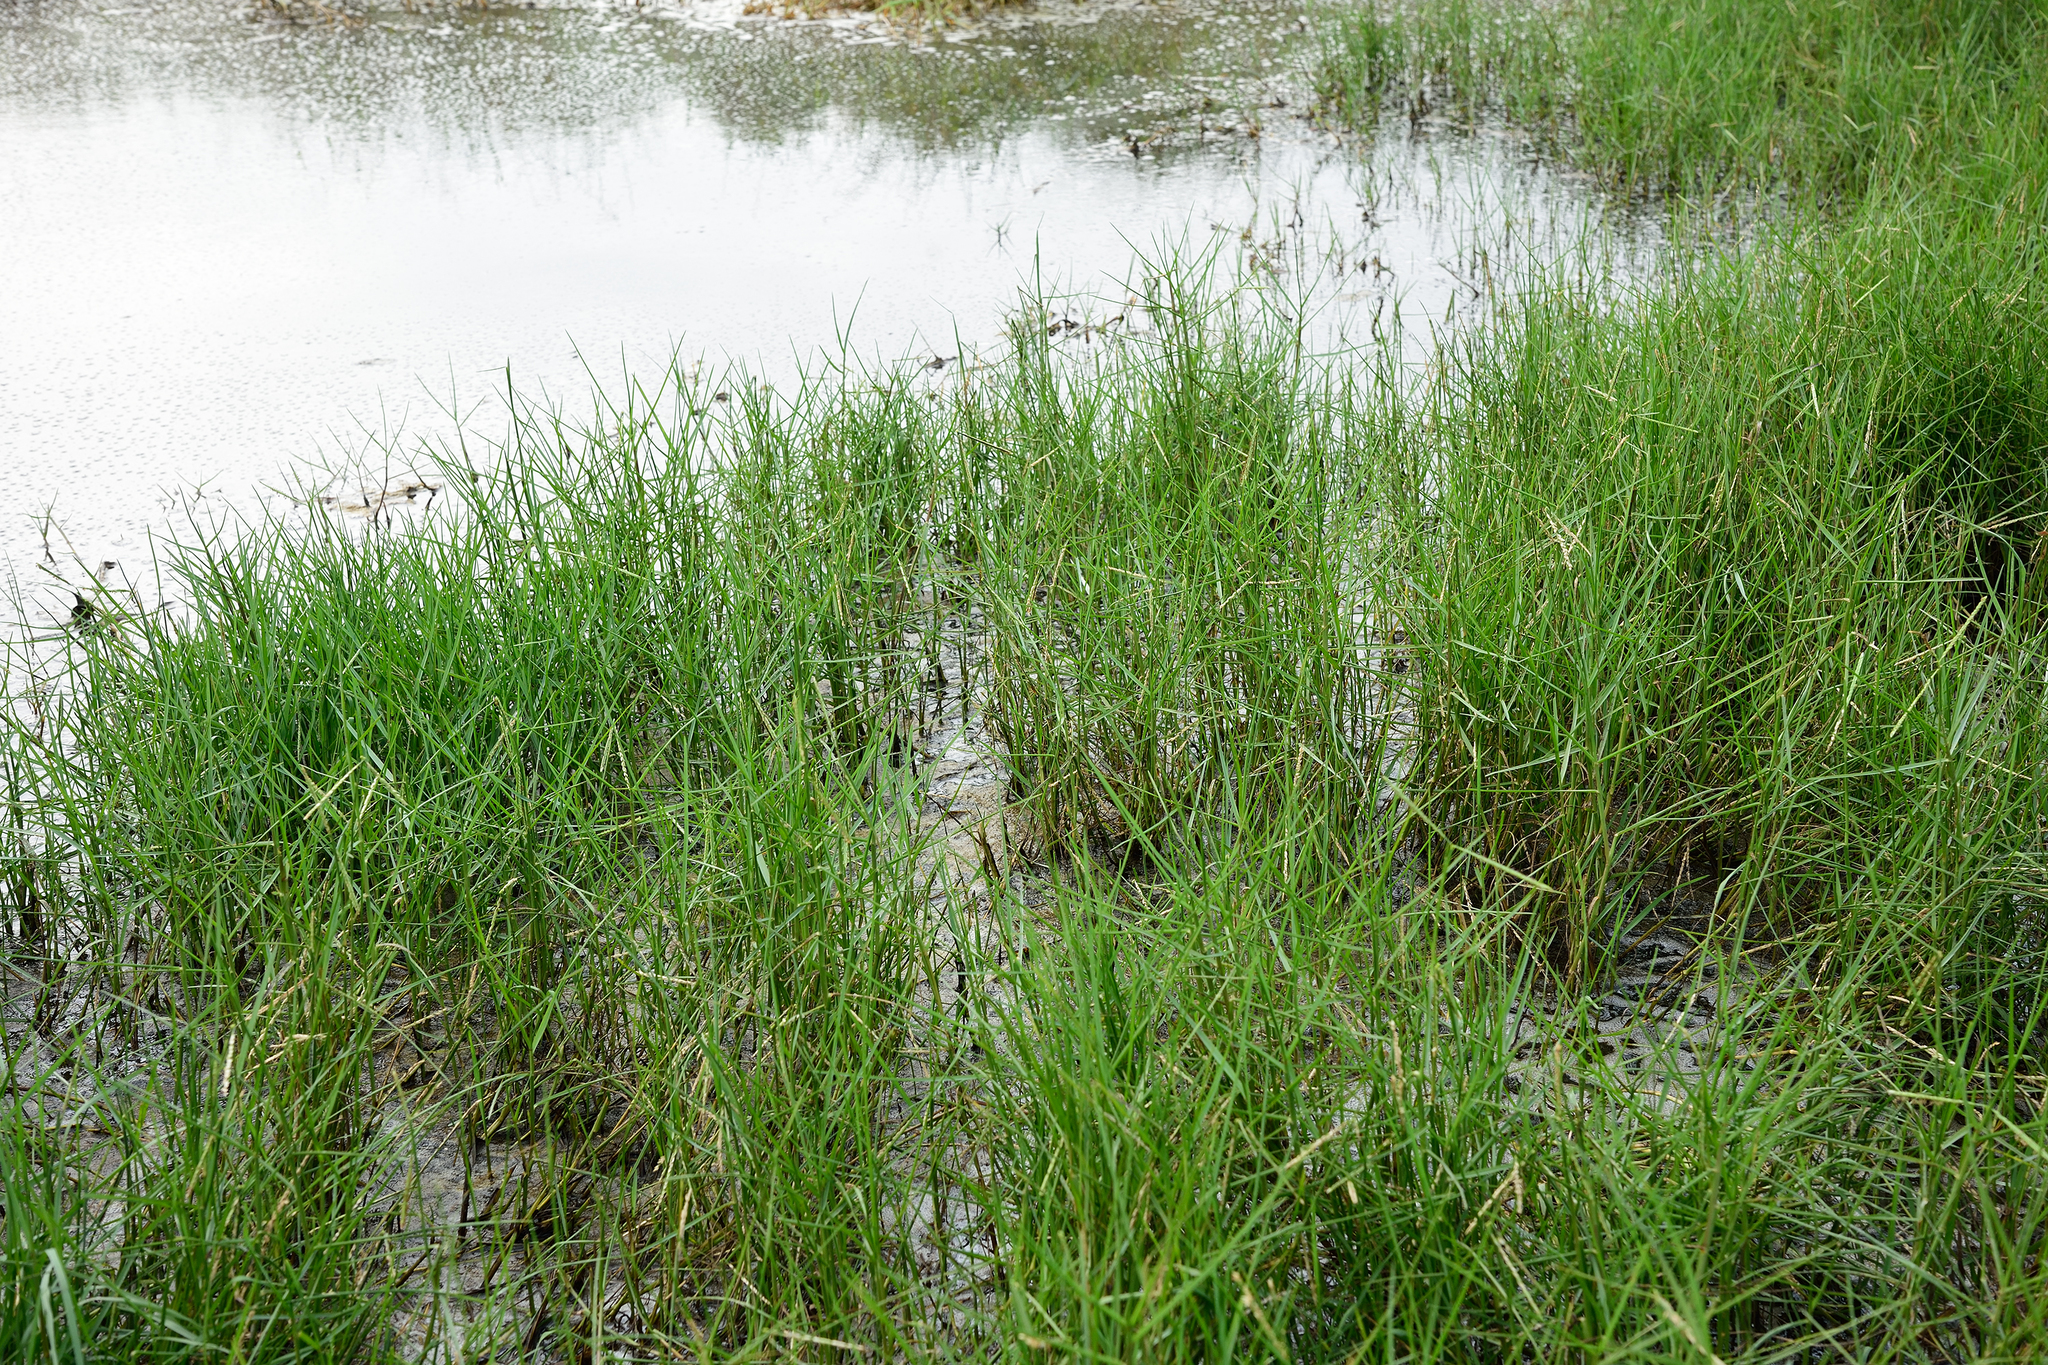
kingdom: Plantae
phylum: Tracheophyta
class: Liliopsida
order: Poales
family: Poaceae
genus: Paspalum
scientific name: Paspalum vaginatum
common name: Seashore paspalum
